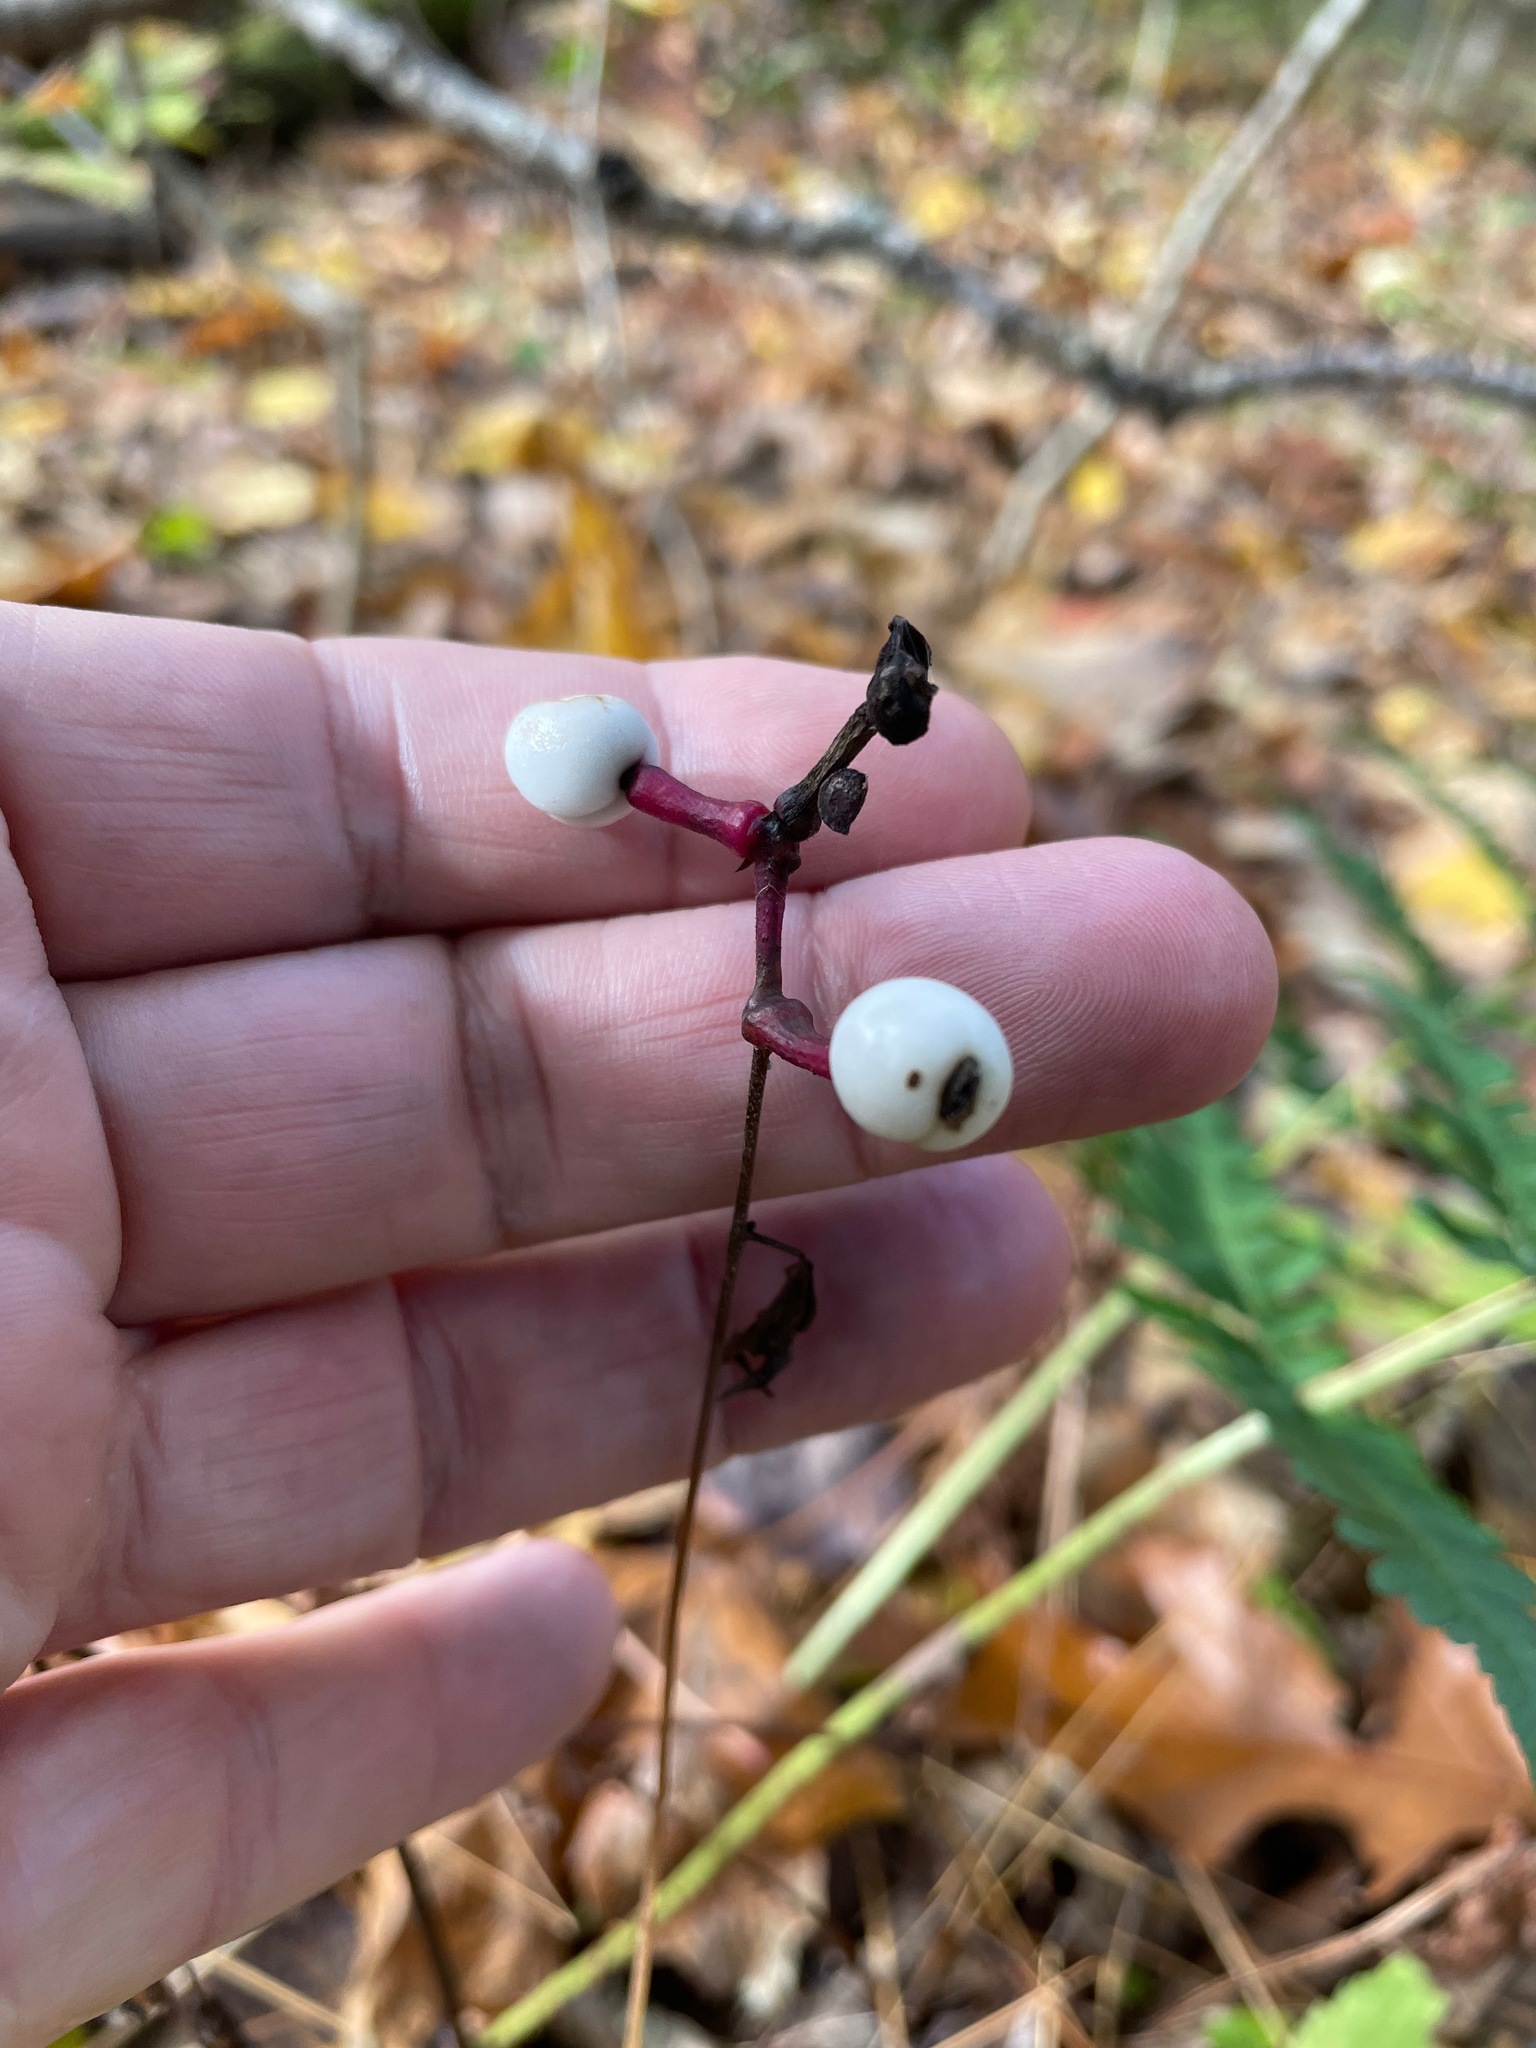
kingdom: Plantae
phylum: Tracheophyta
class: Magnoliopsida
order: Ranunculales
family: Ranunculaceae
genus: Actaea
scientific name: Actaea pachypoda
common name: Doll's-eyes
